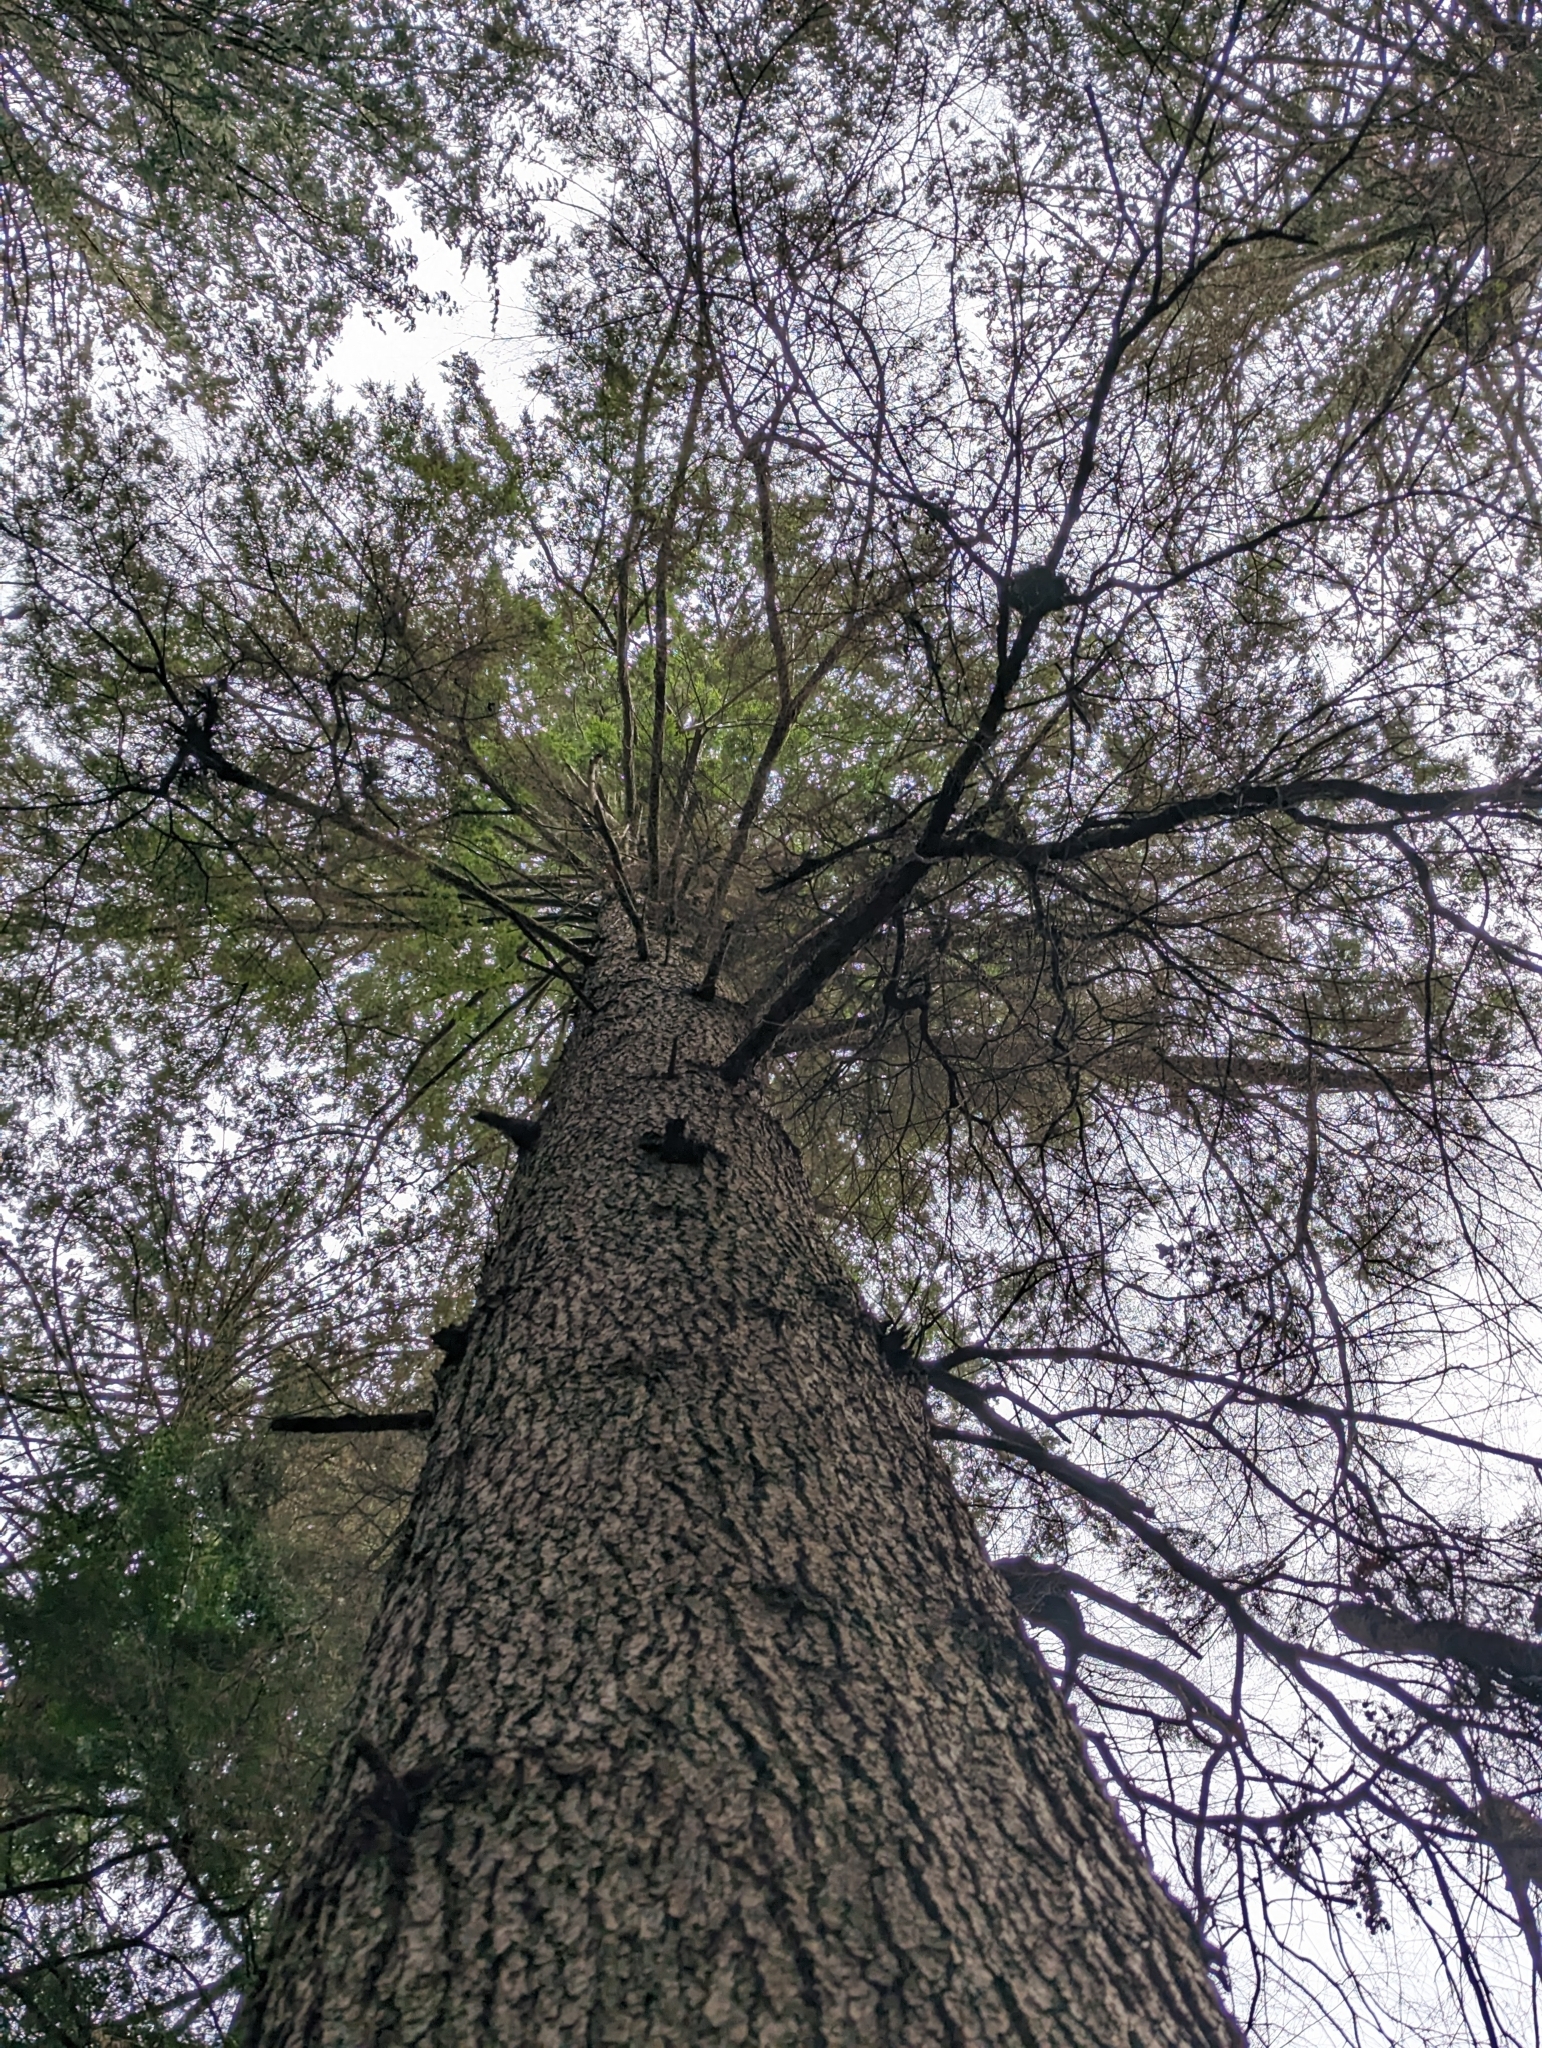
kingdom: Plantae
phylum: Tracheophyta
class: Pinopsida
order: Pinales
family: Pinaceae
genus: Tsuga
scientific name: Tsuga heterophylla
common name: Western hemlock
